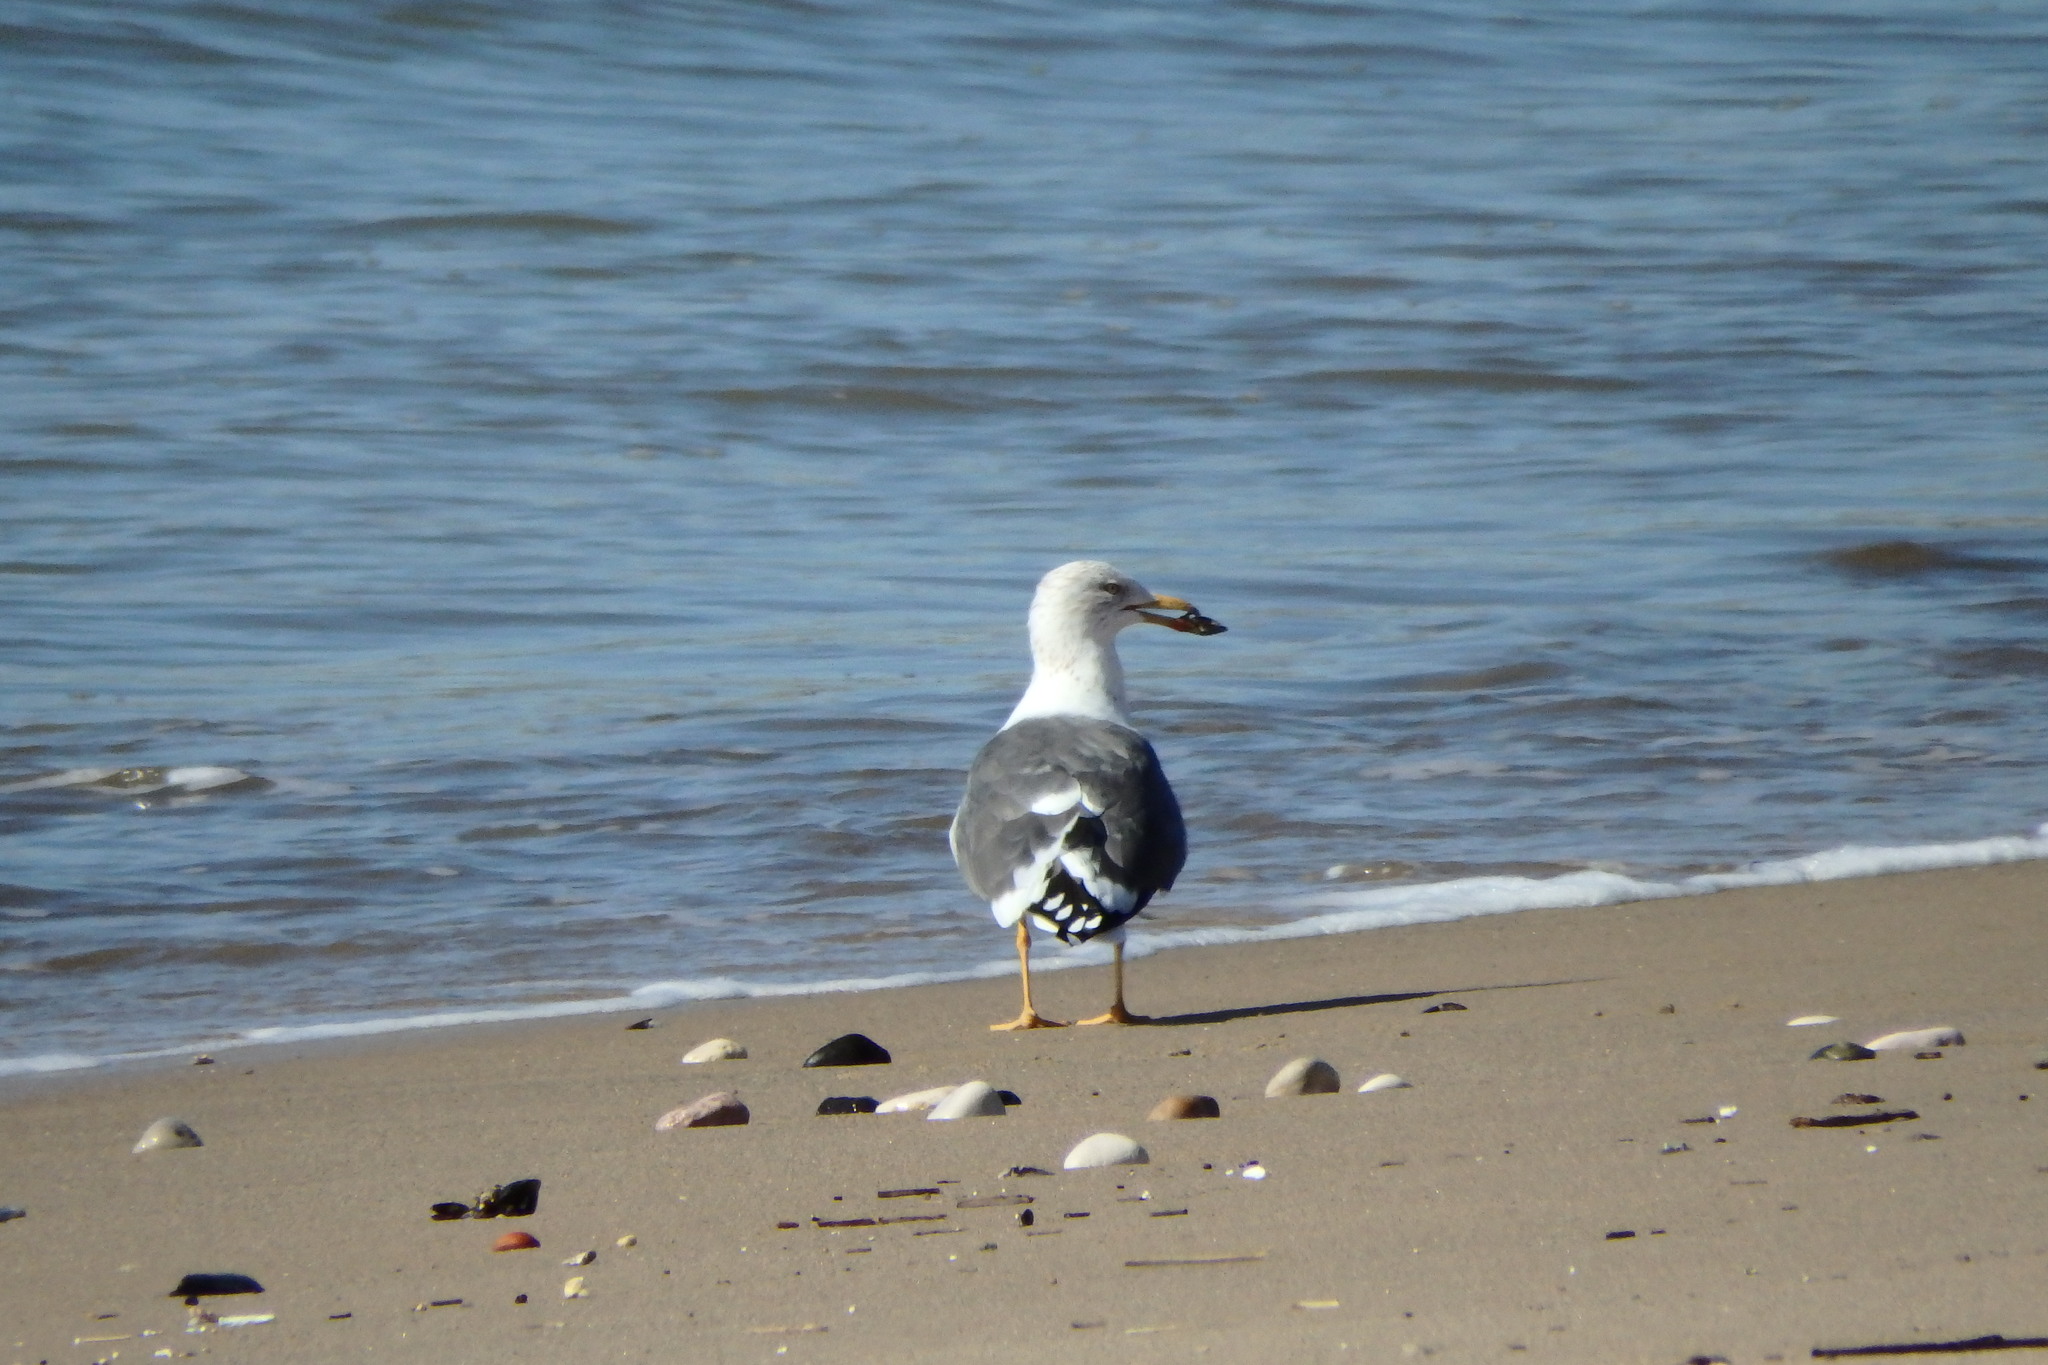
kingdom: Animalia
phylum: Chordata
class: Aves
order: Charadriiformes
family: Laridae
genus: Larus
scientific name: Larus michahellis
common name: Yellow-legged gull
